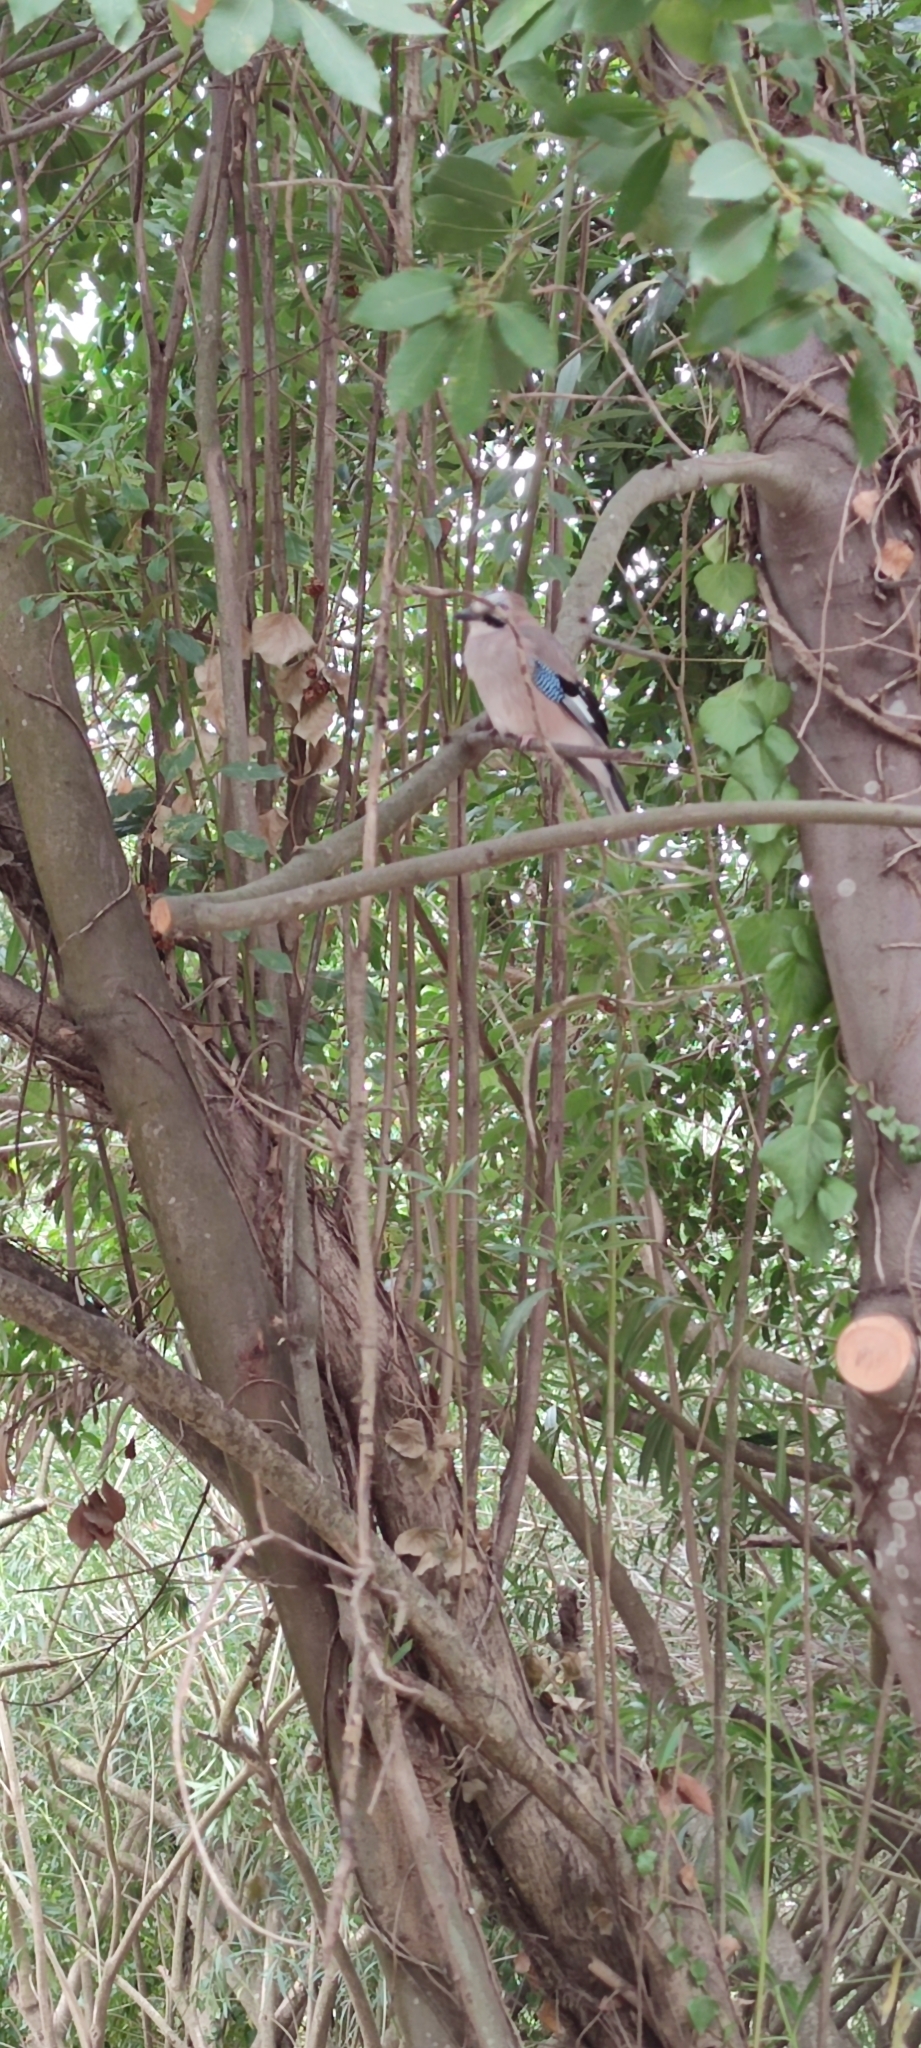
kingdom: Animalia
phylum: Chordata
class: Aves
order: Passeriformes
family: Corvidae
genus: Garrulus
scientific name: Garrulus glandarius
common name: Eurasian jay
